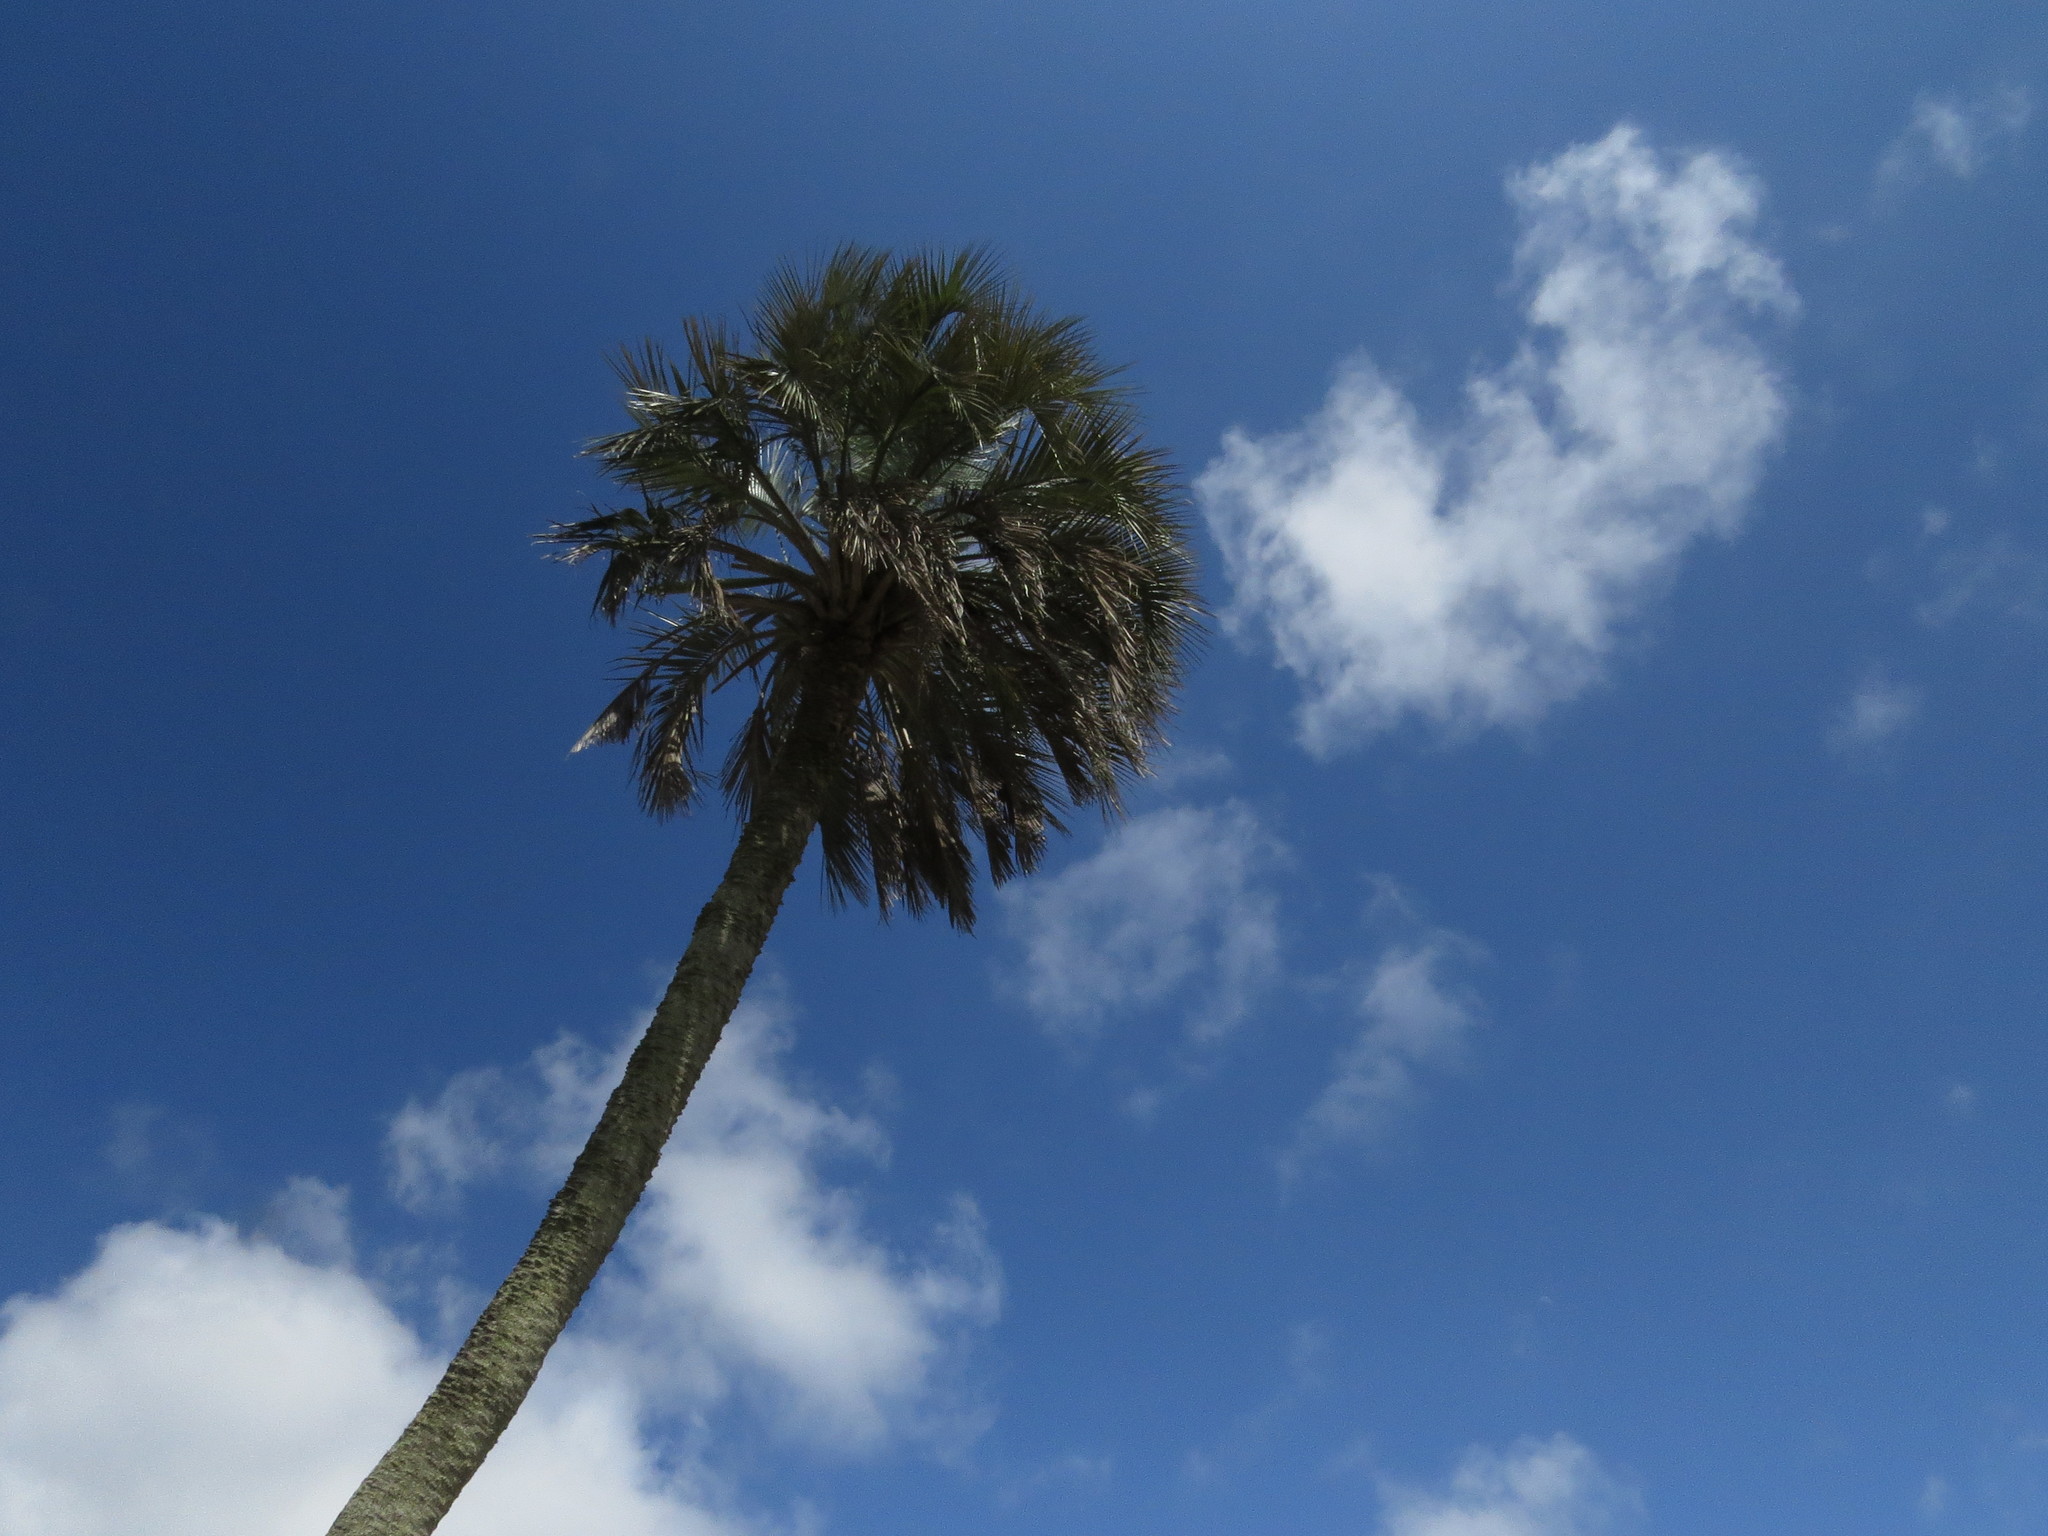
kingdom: Plantae
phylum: Tracheophyta
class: Liliopsida
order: Arecales
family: Arecaceae
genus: Butia
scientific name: Butia yatay
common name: Yatay palm
